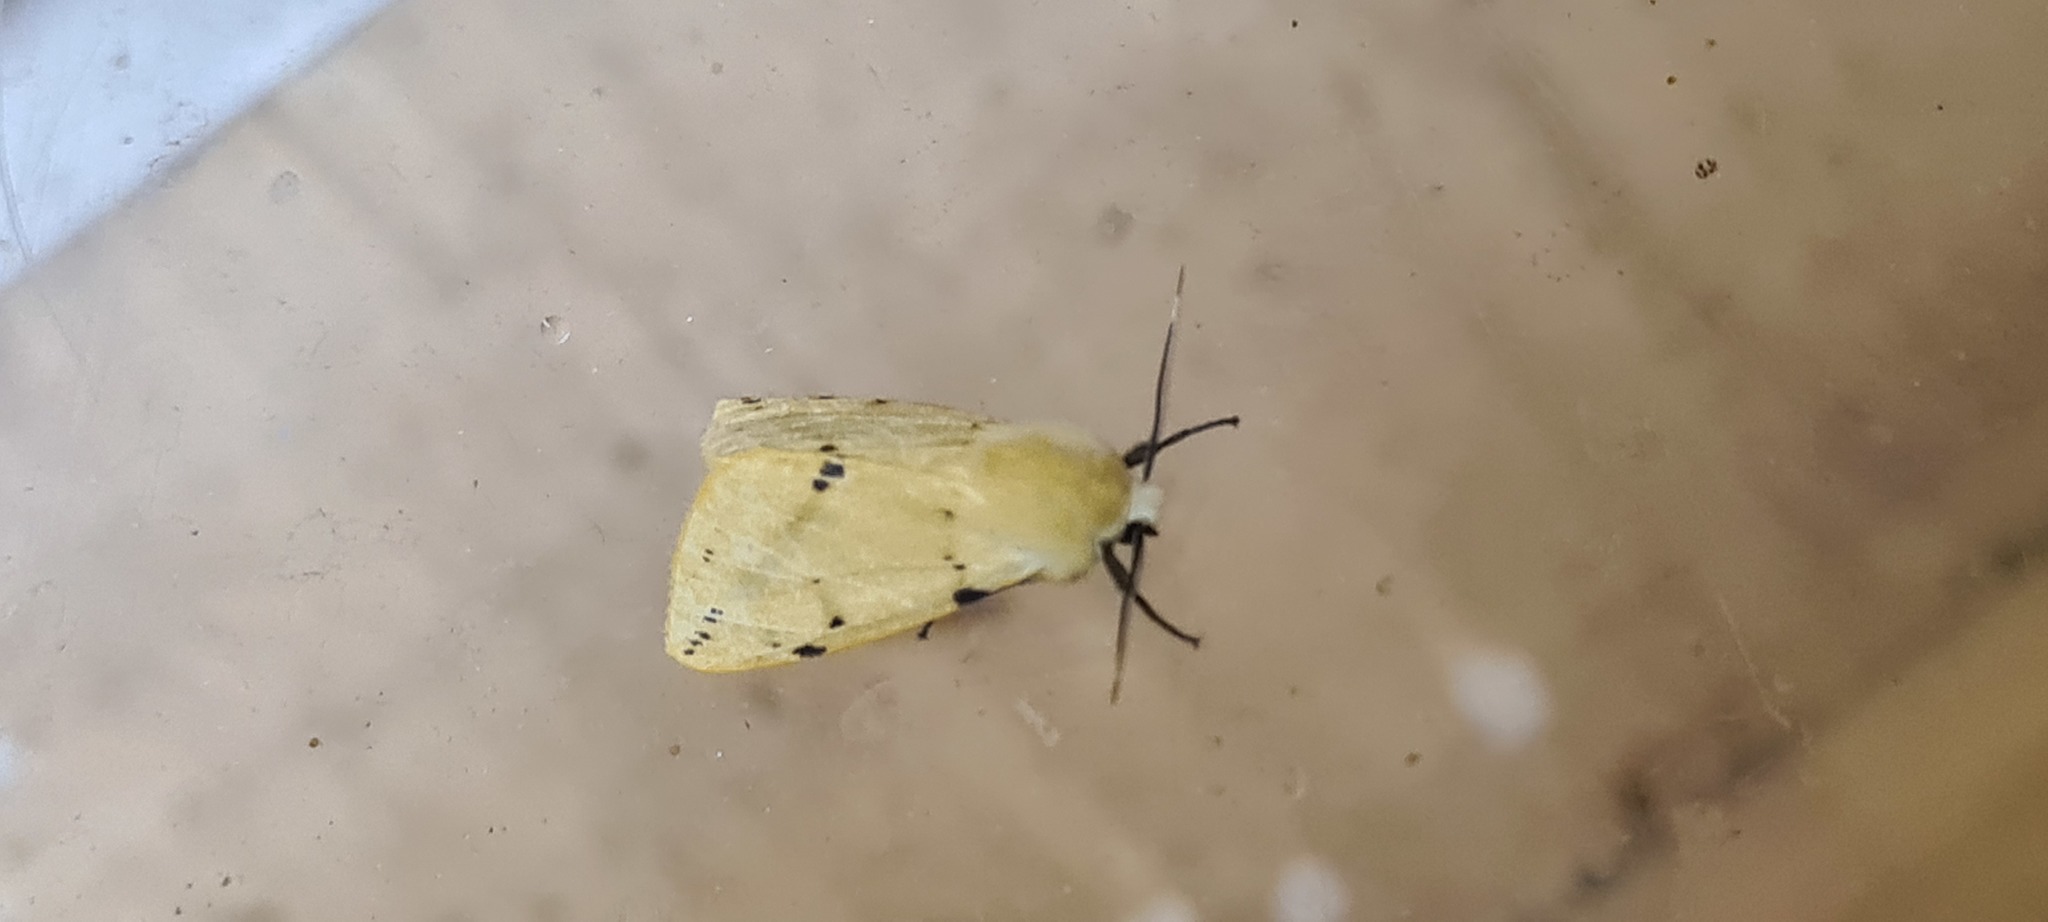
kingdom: Animalia
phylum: Arthropoda
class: Insecta
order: Lepidoptera
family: Erebidae
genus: Spilarctia
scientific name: Spilarctia lutea
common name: Buff ermine
